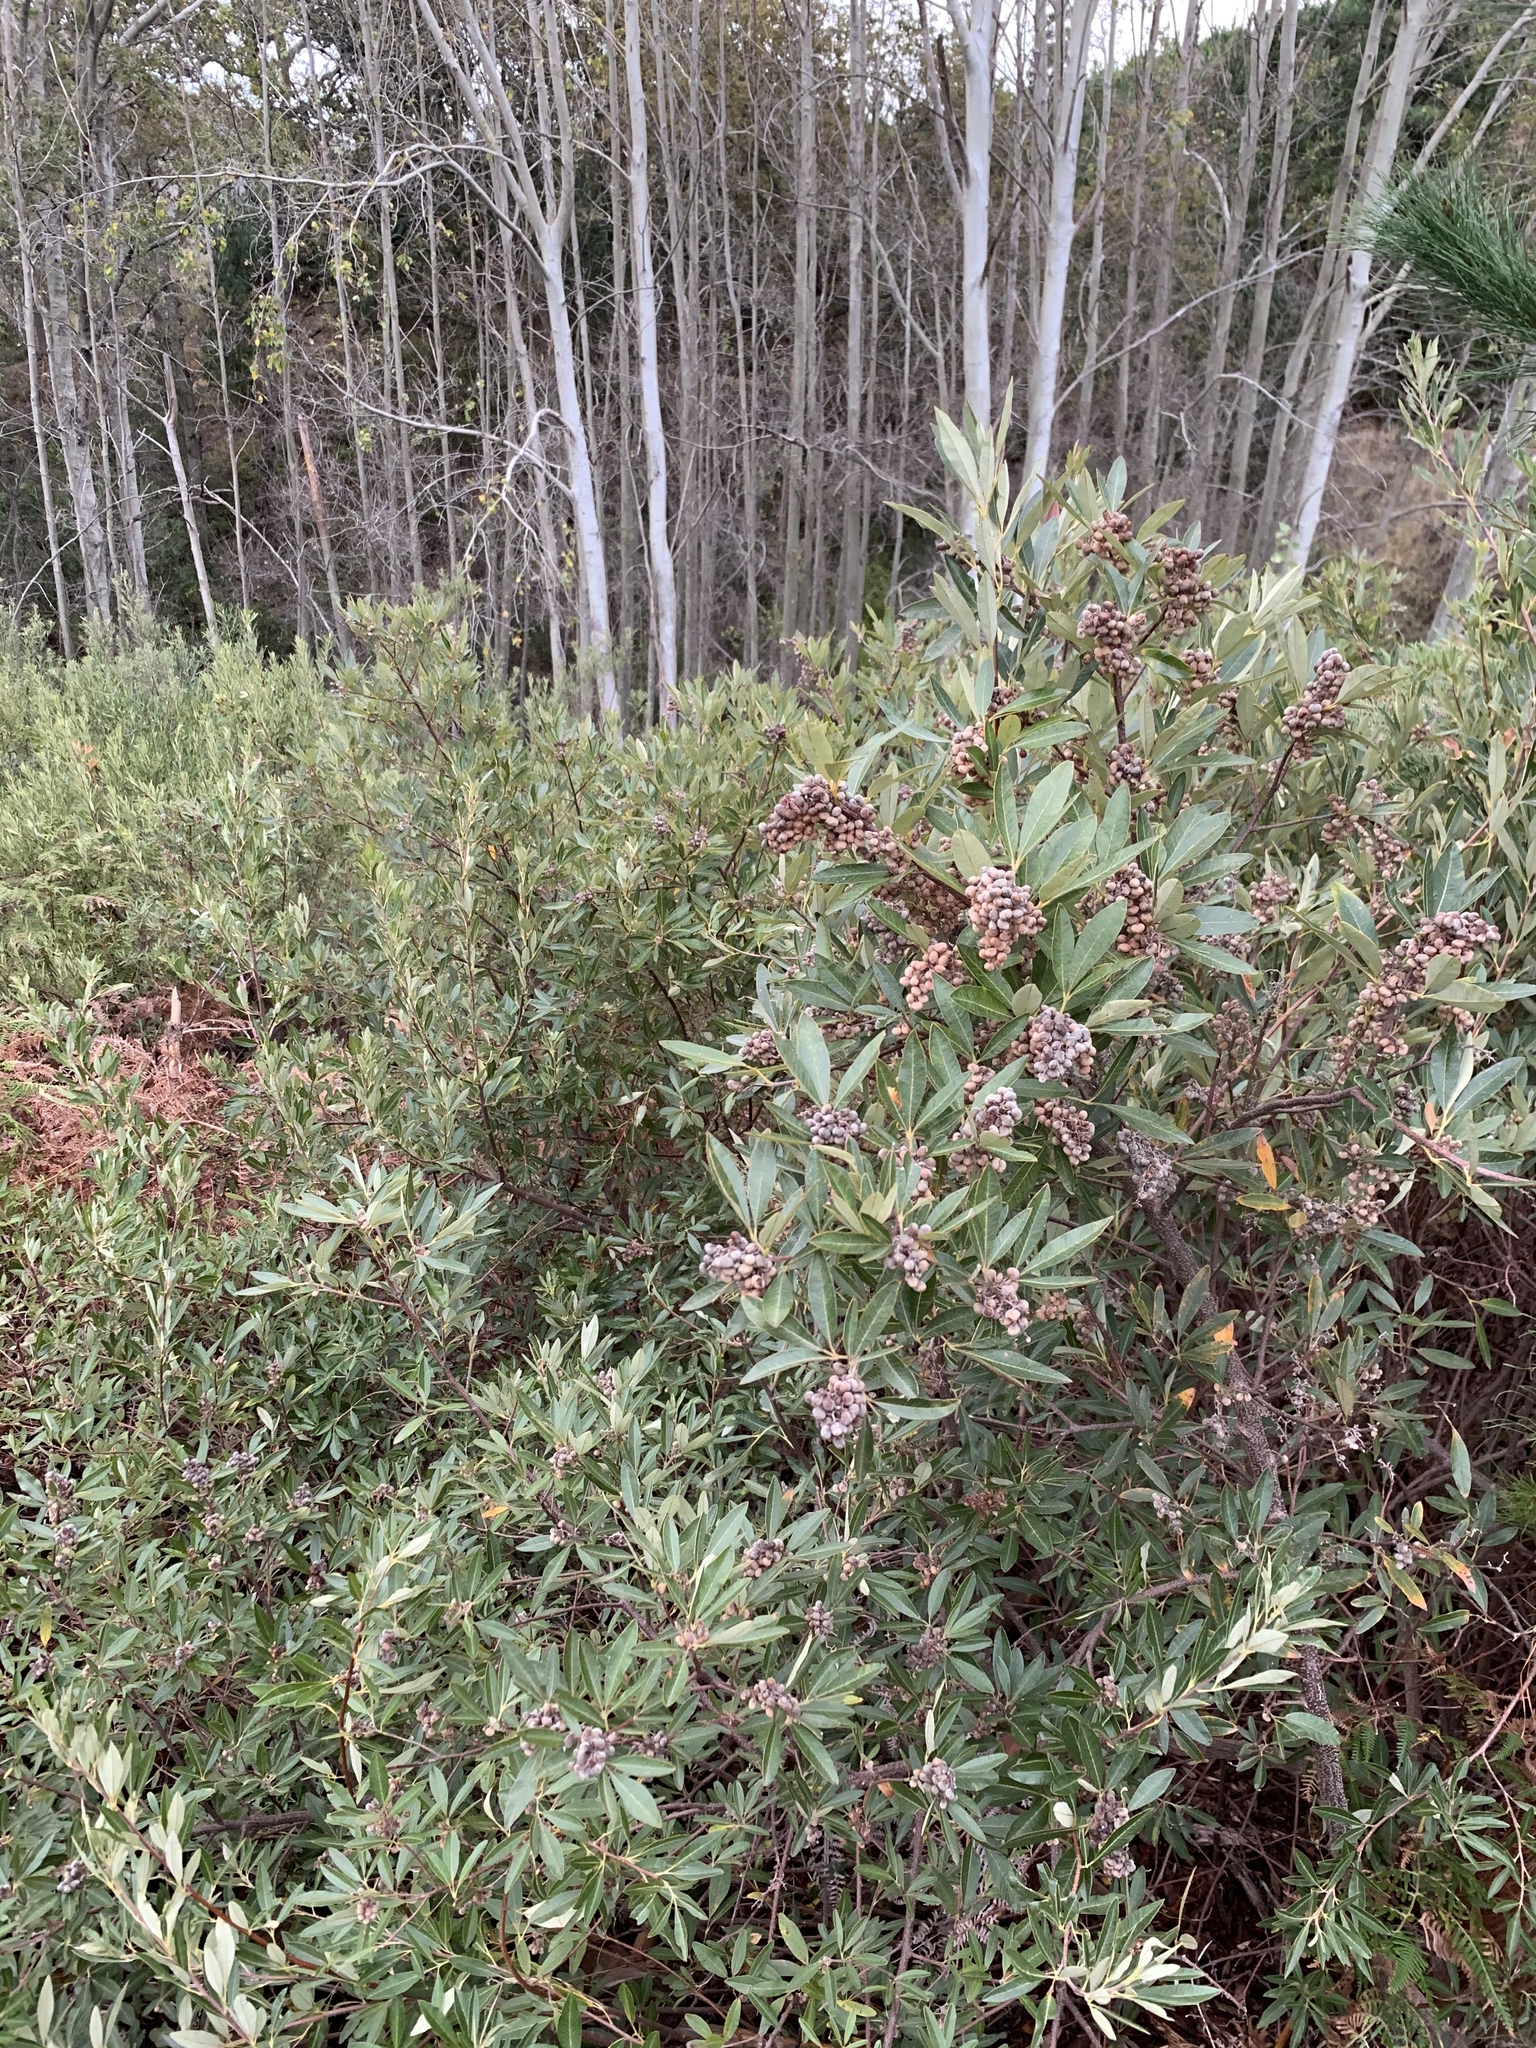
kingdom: Plantae
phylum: Tracheophyta
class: Magnoliopsida
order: Sapindales
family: Anacardiaceae
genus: Searsia
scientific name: Searsia angustifolia
